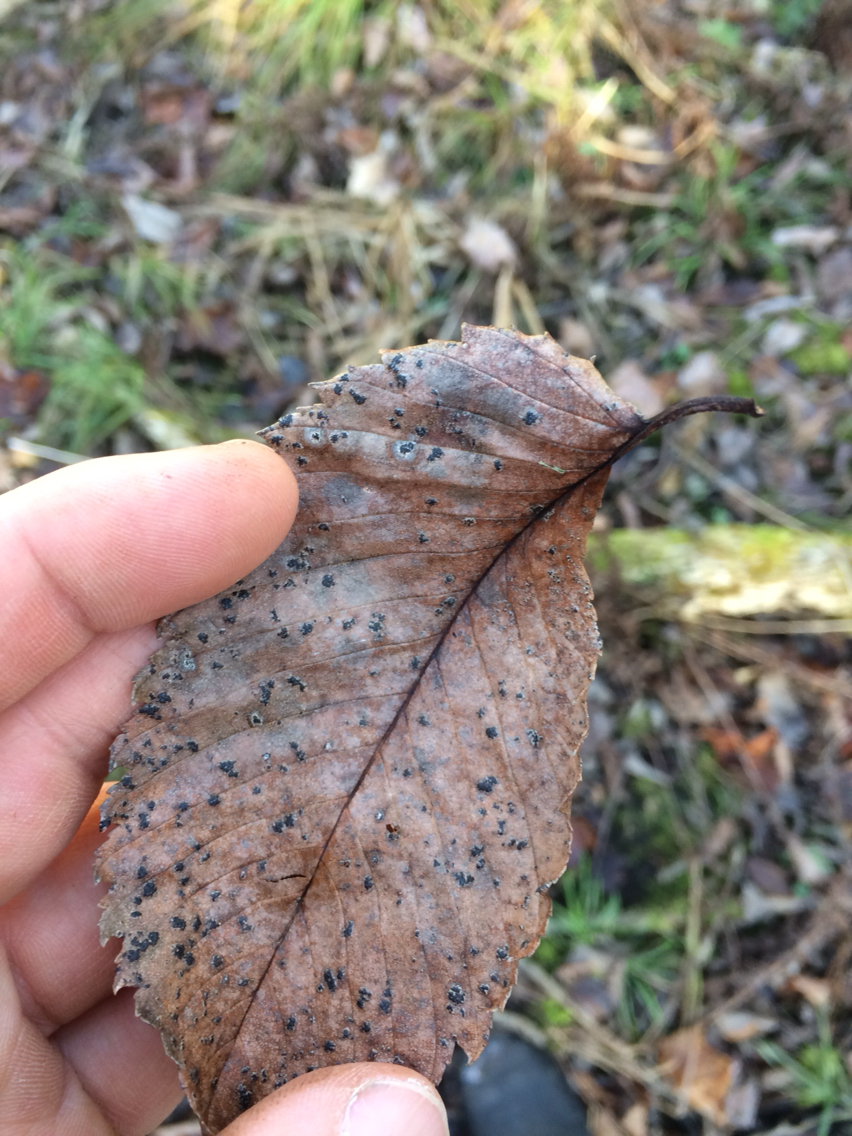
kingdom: Plantae
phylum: Tracheophyta
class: Magnoliopsida
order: Rosales
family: Ulmaceae
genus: Ulmus
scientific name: Ulmus americana
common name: American elm
